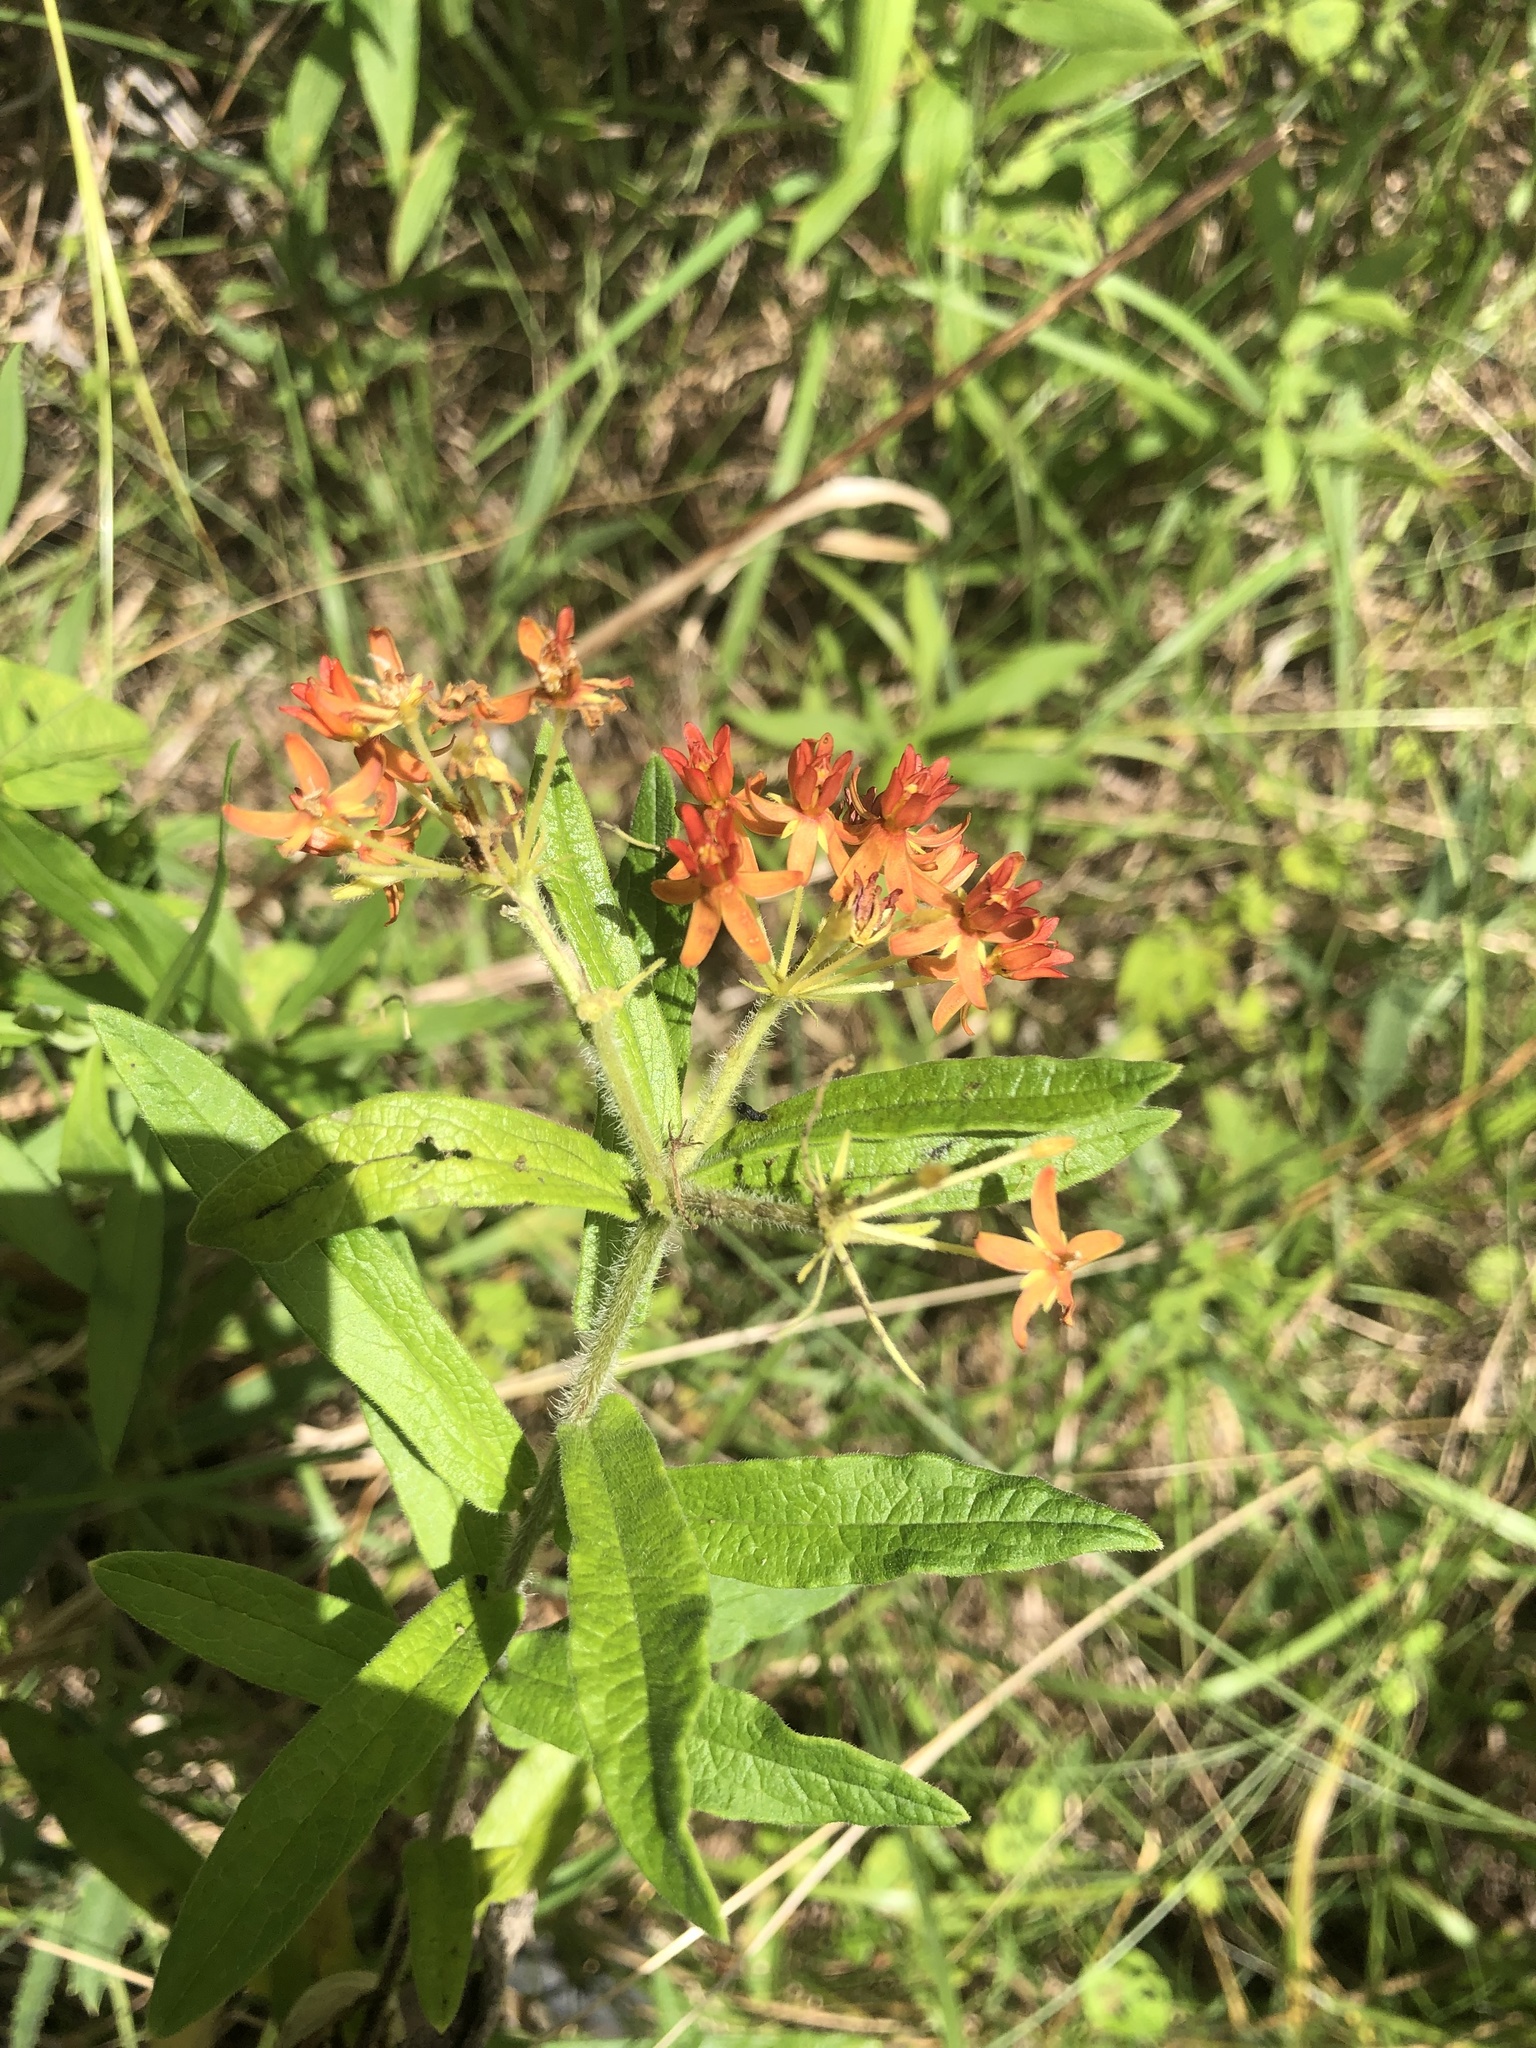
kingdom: Plantae
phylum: Tracheophyta
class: Magnoliopsida
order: Gentianales
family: Apocynaceae
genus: Asclepias
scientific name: Asclepias tuberosa
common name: Butterfly milkweed
